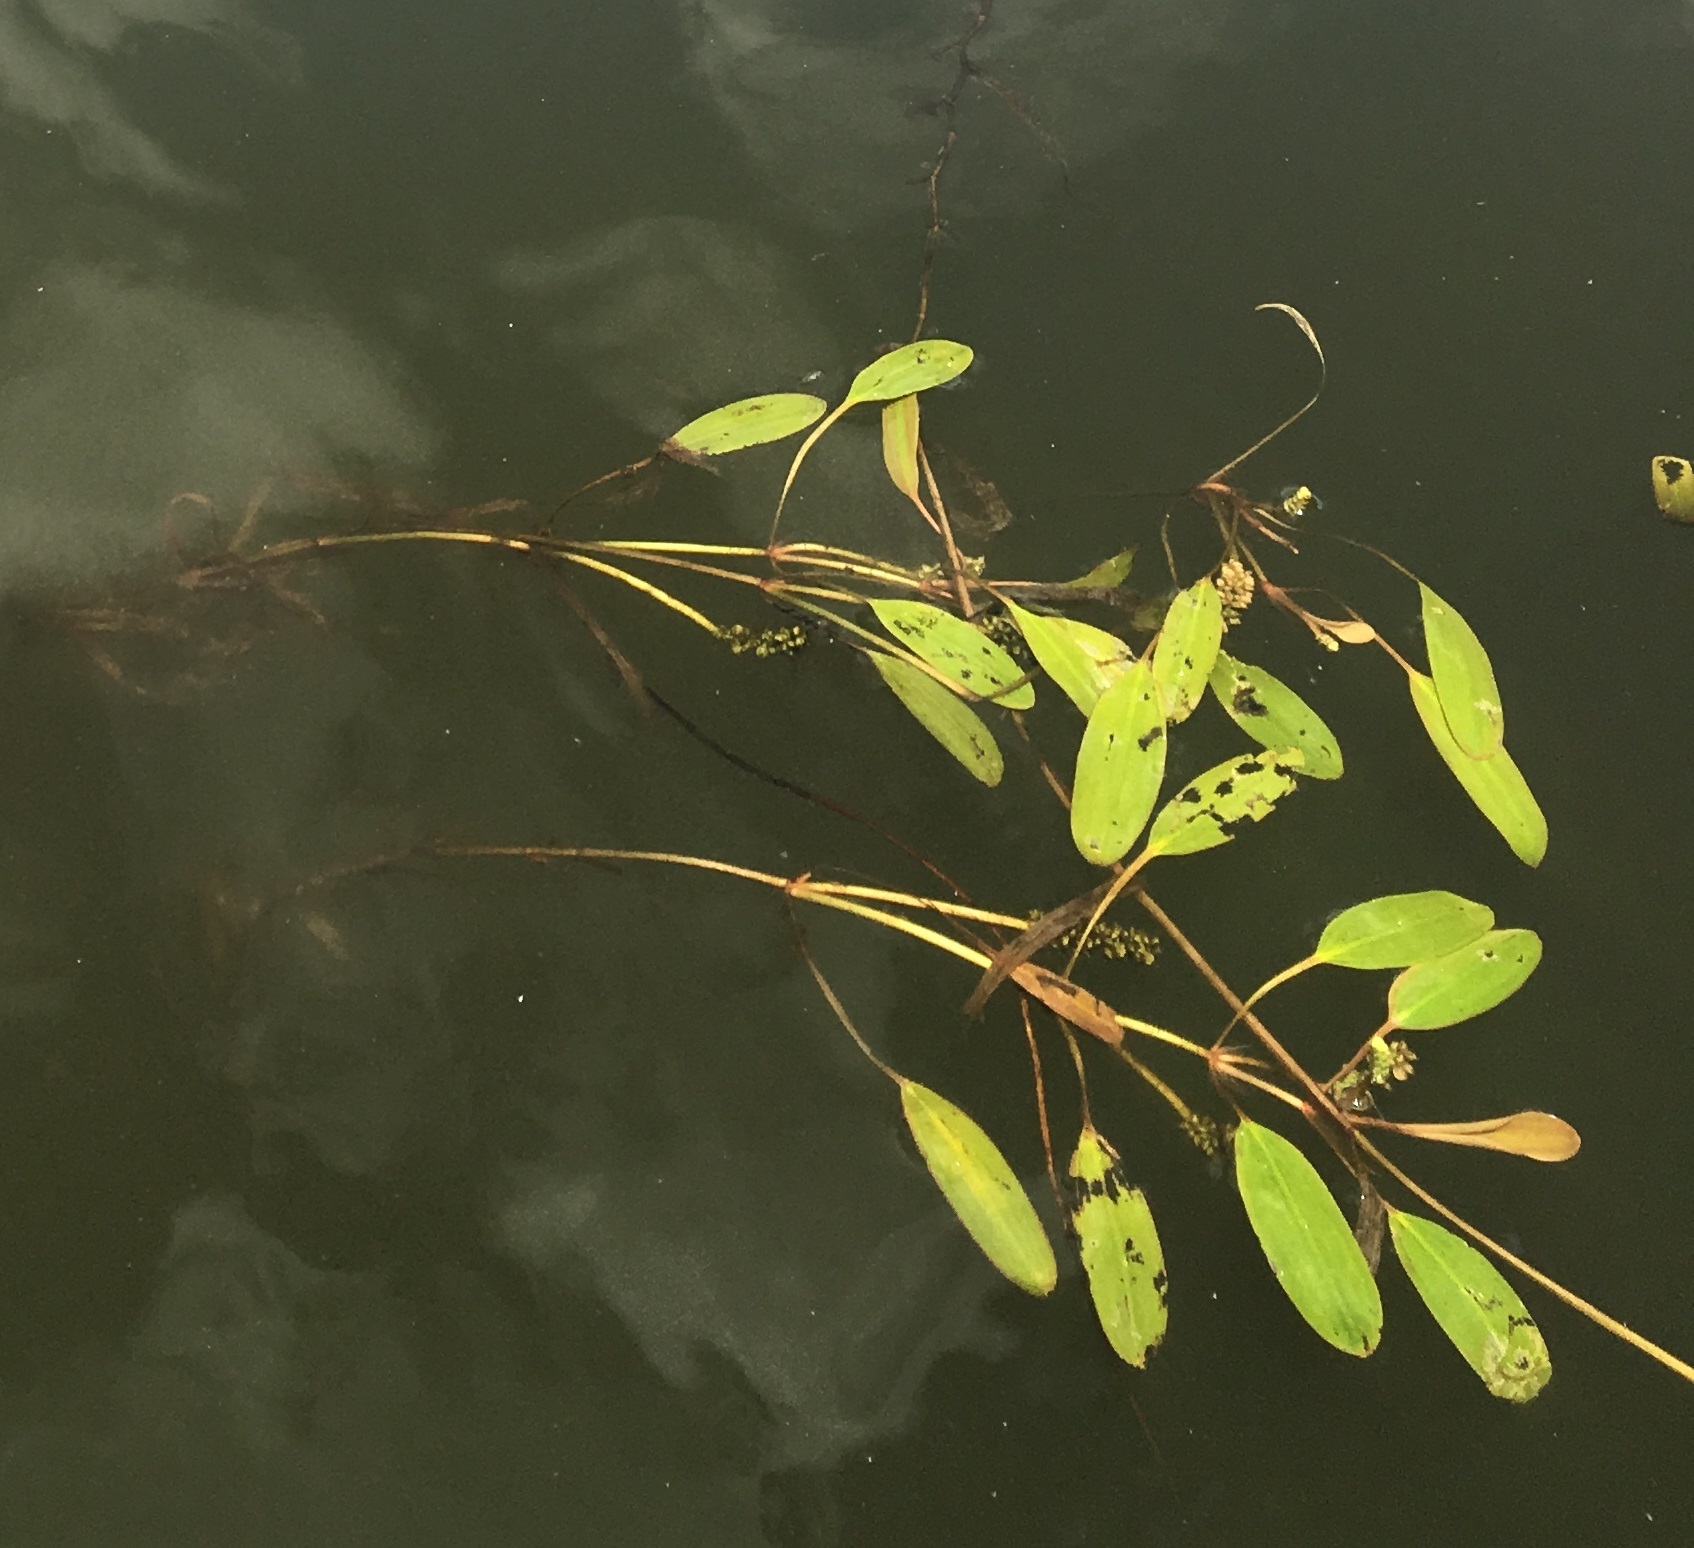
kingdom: Plantae
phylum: Tracheophyta
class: Liliopsida
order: Alismatales
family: Potamogetonaceae
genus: Potamogeton
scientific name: Potamogeton epihydrus
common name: American pondweed
